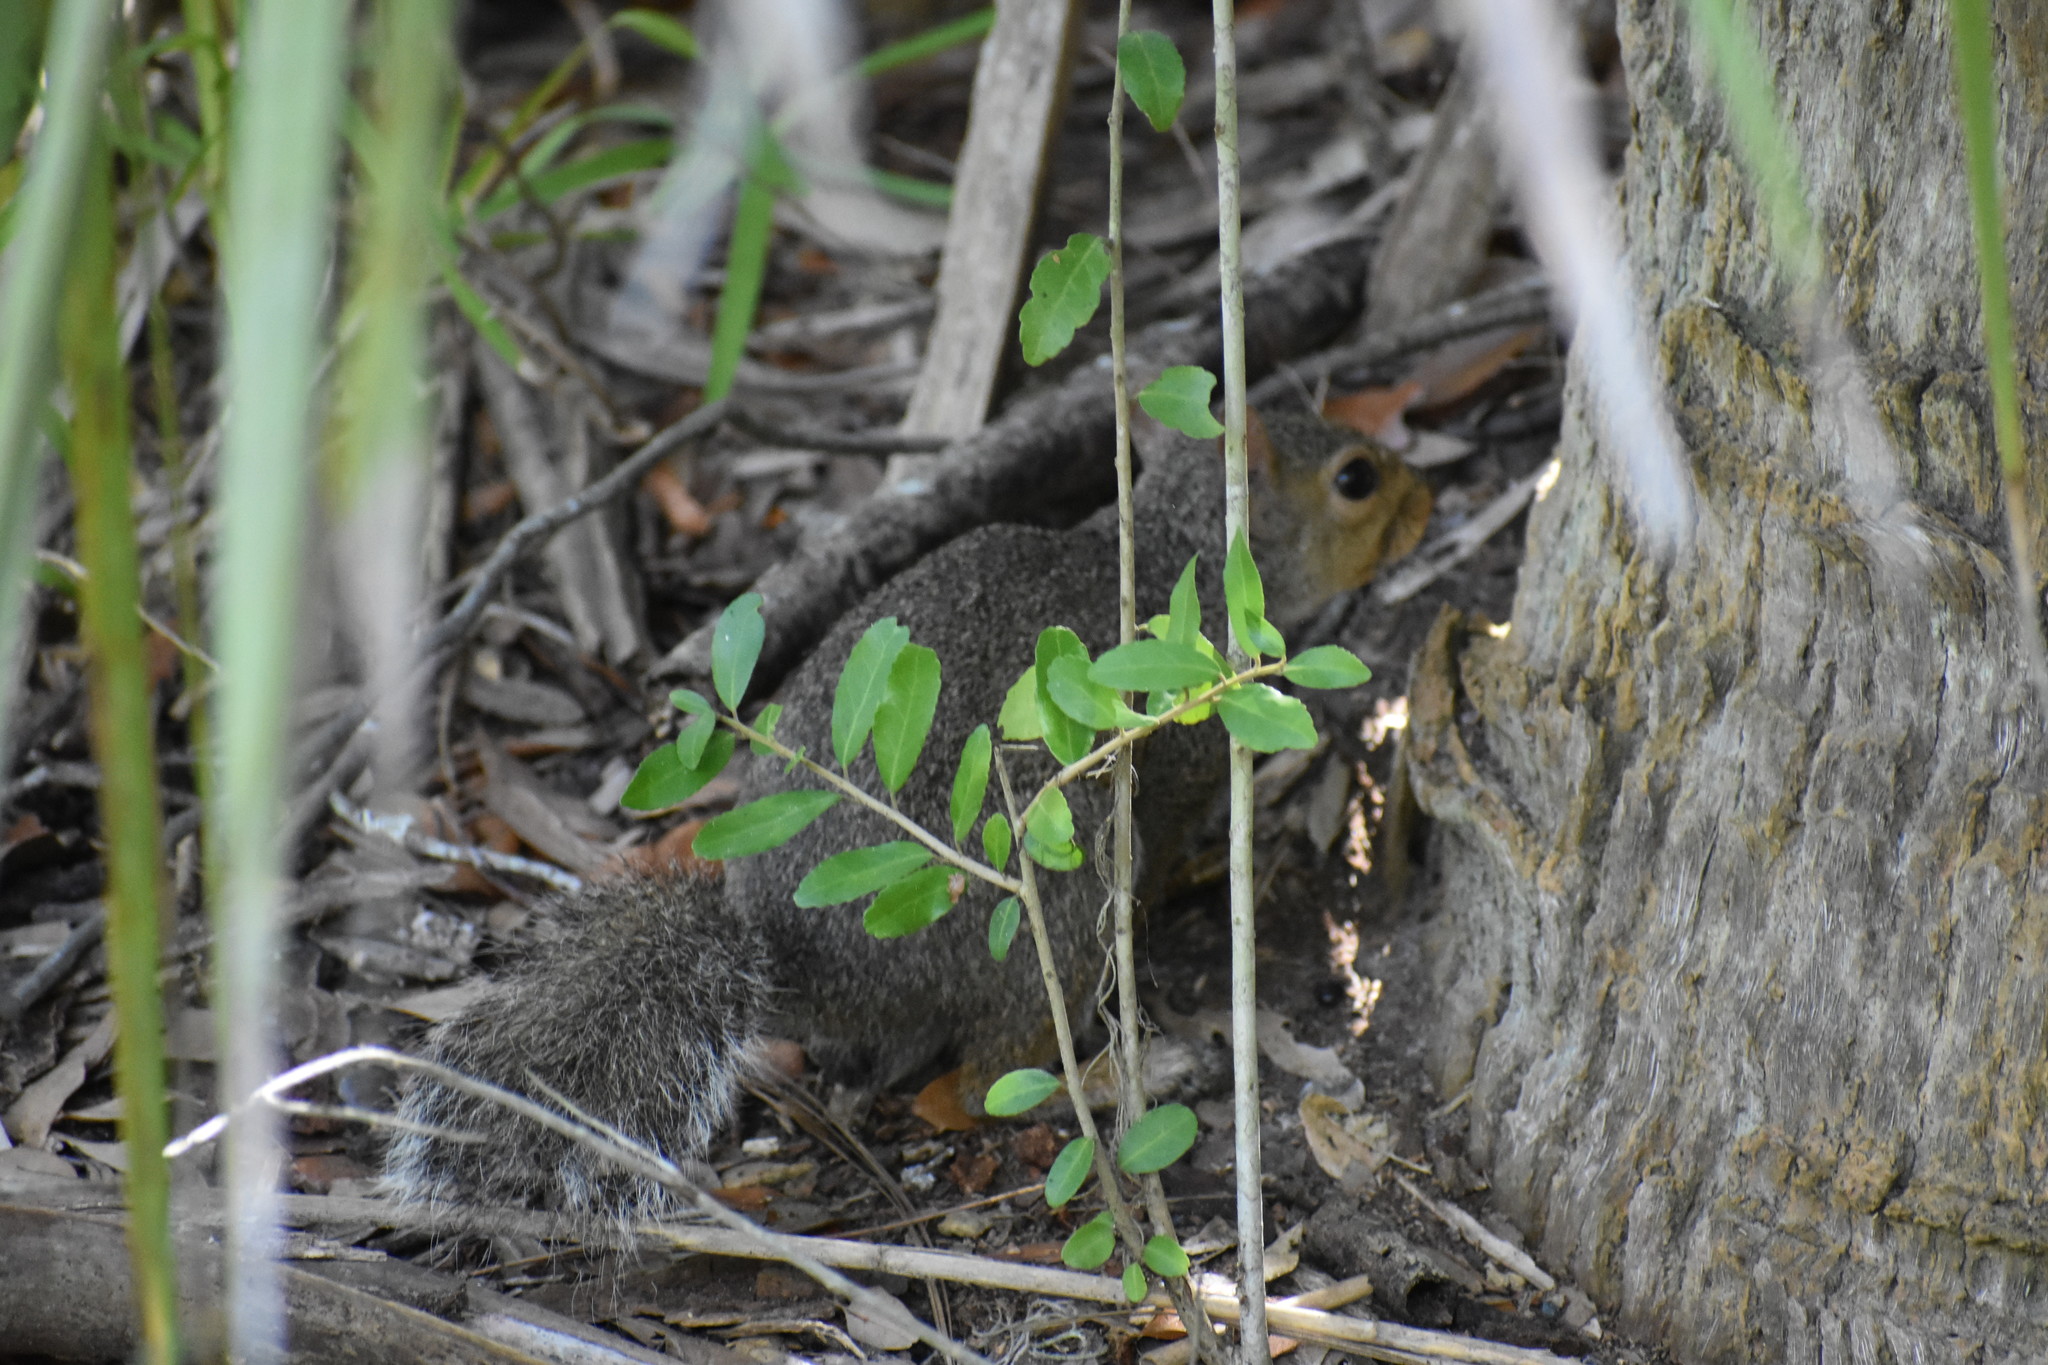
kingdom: Animalia
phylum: Chordata
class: Mammalia
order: Rodentia
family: Sciuridae
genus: Sciurus
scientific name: Sciurus carolinensis
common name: Eastern gray squirrel
